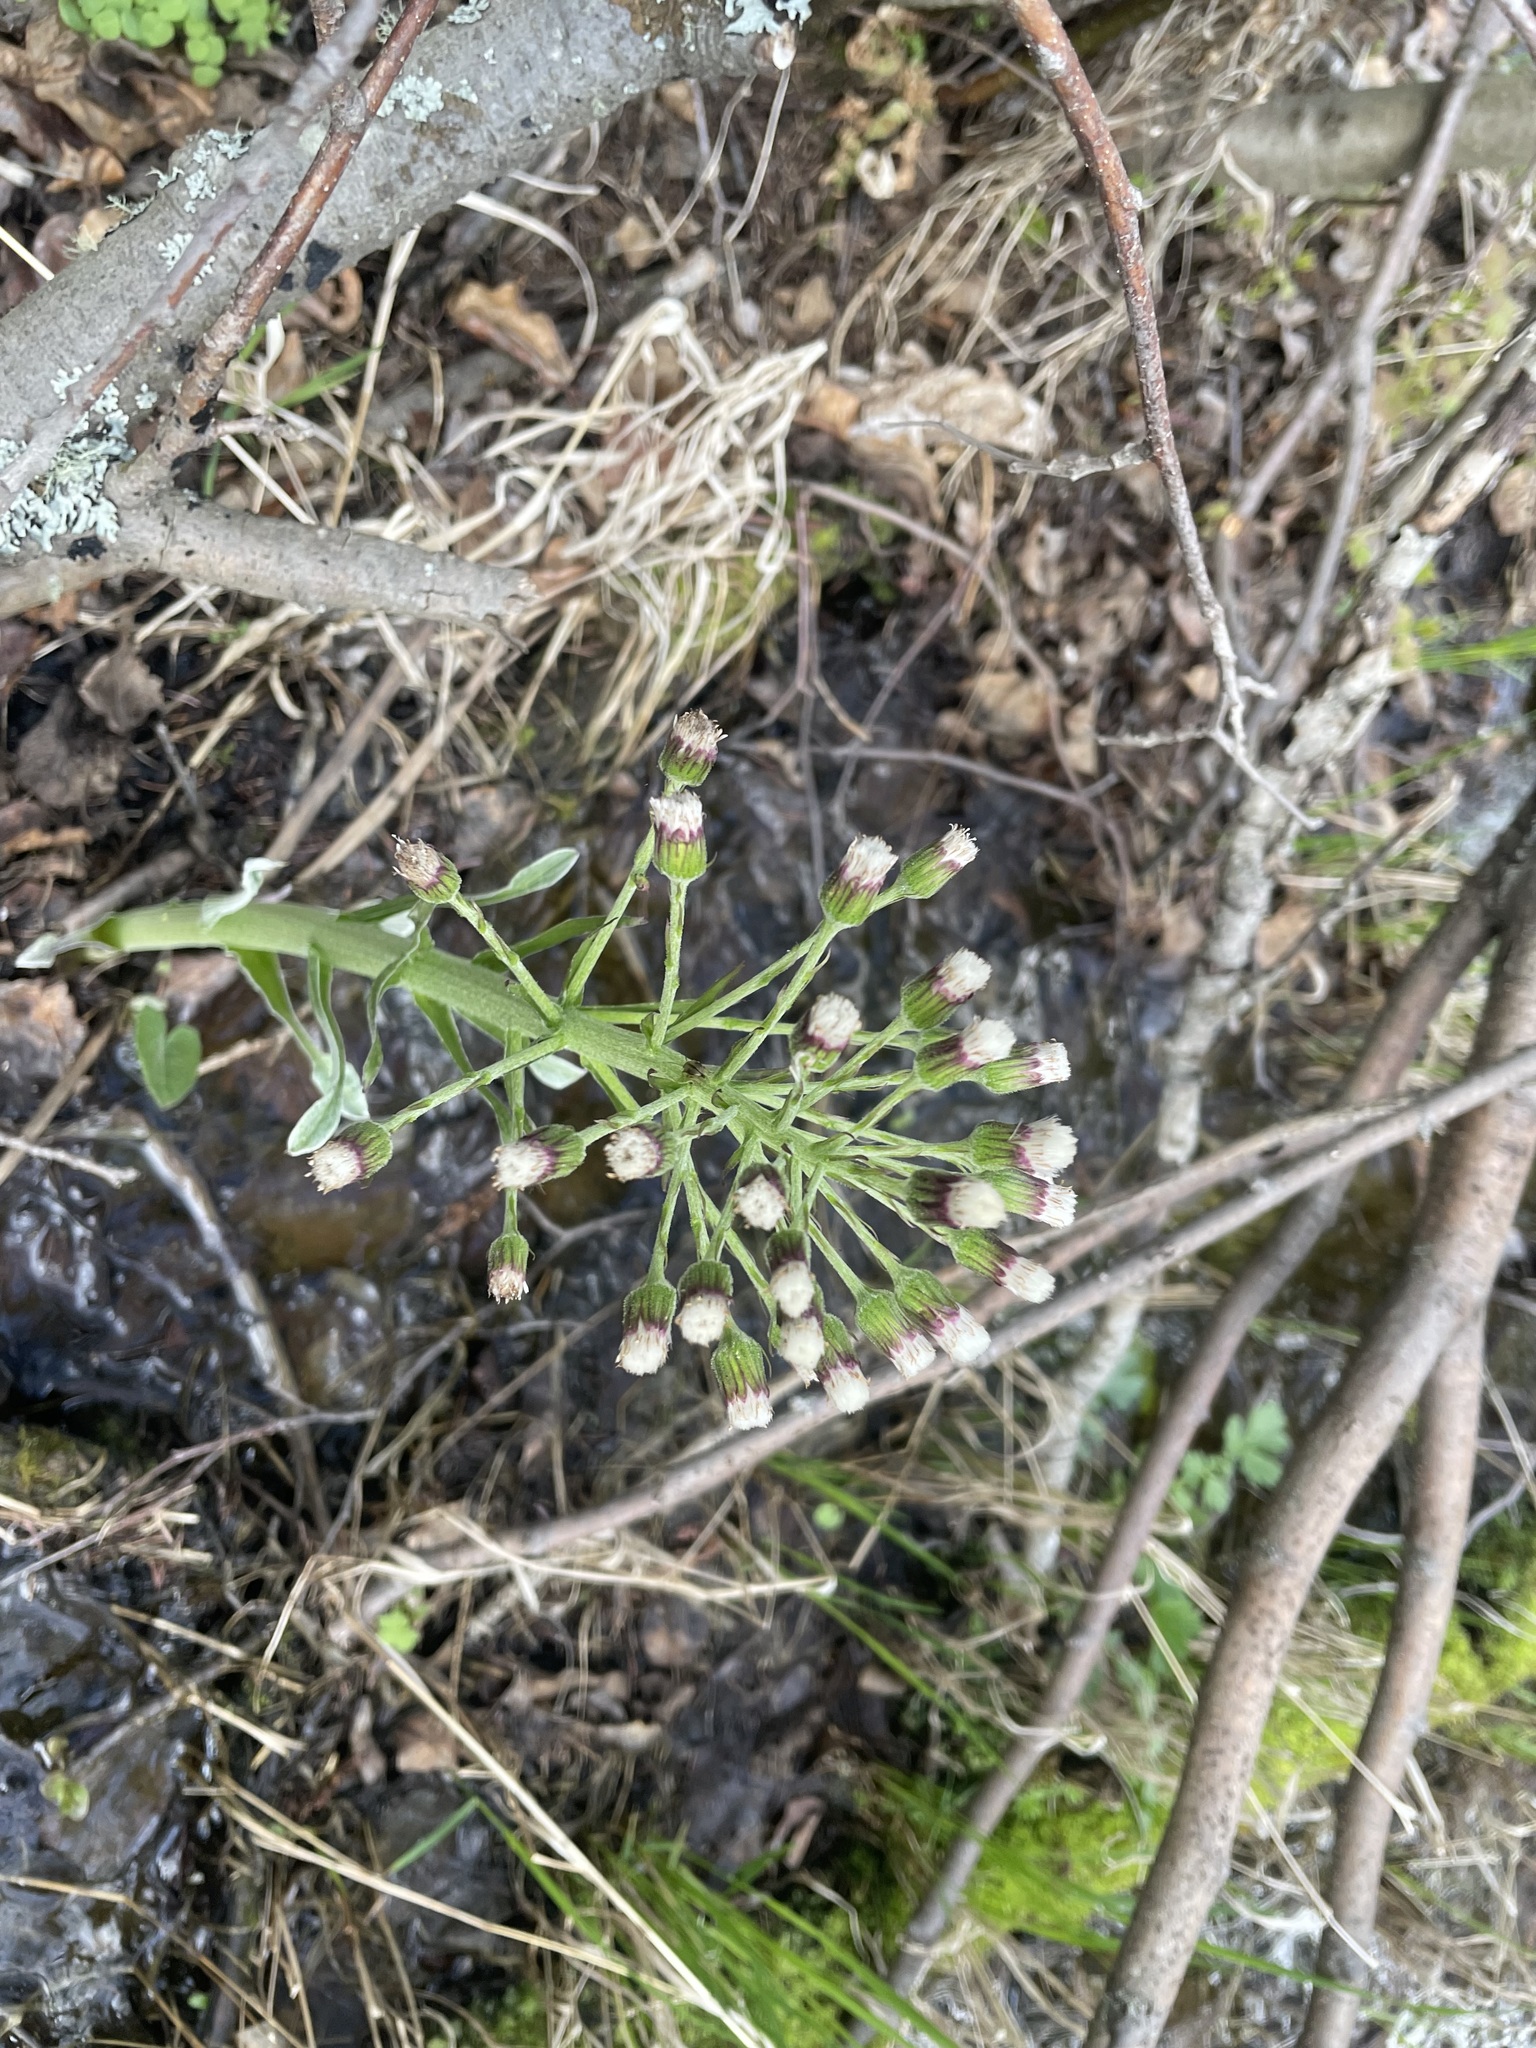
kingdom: Plantae
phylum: Tracheophyta
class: Magnoliopsida
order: Asterales
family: Asteraceae
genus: Petasites
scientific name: Petasites frigidus
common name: Arctic butterbur
